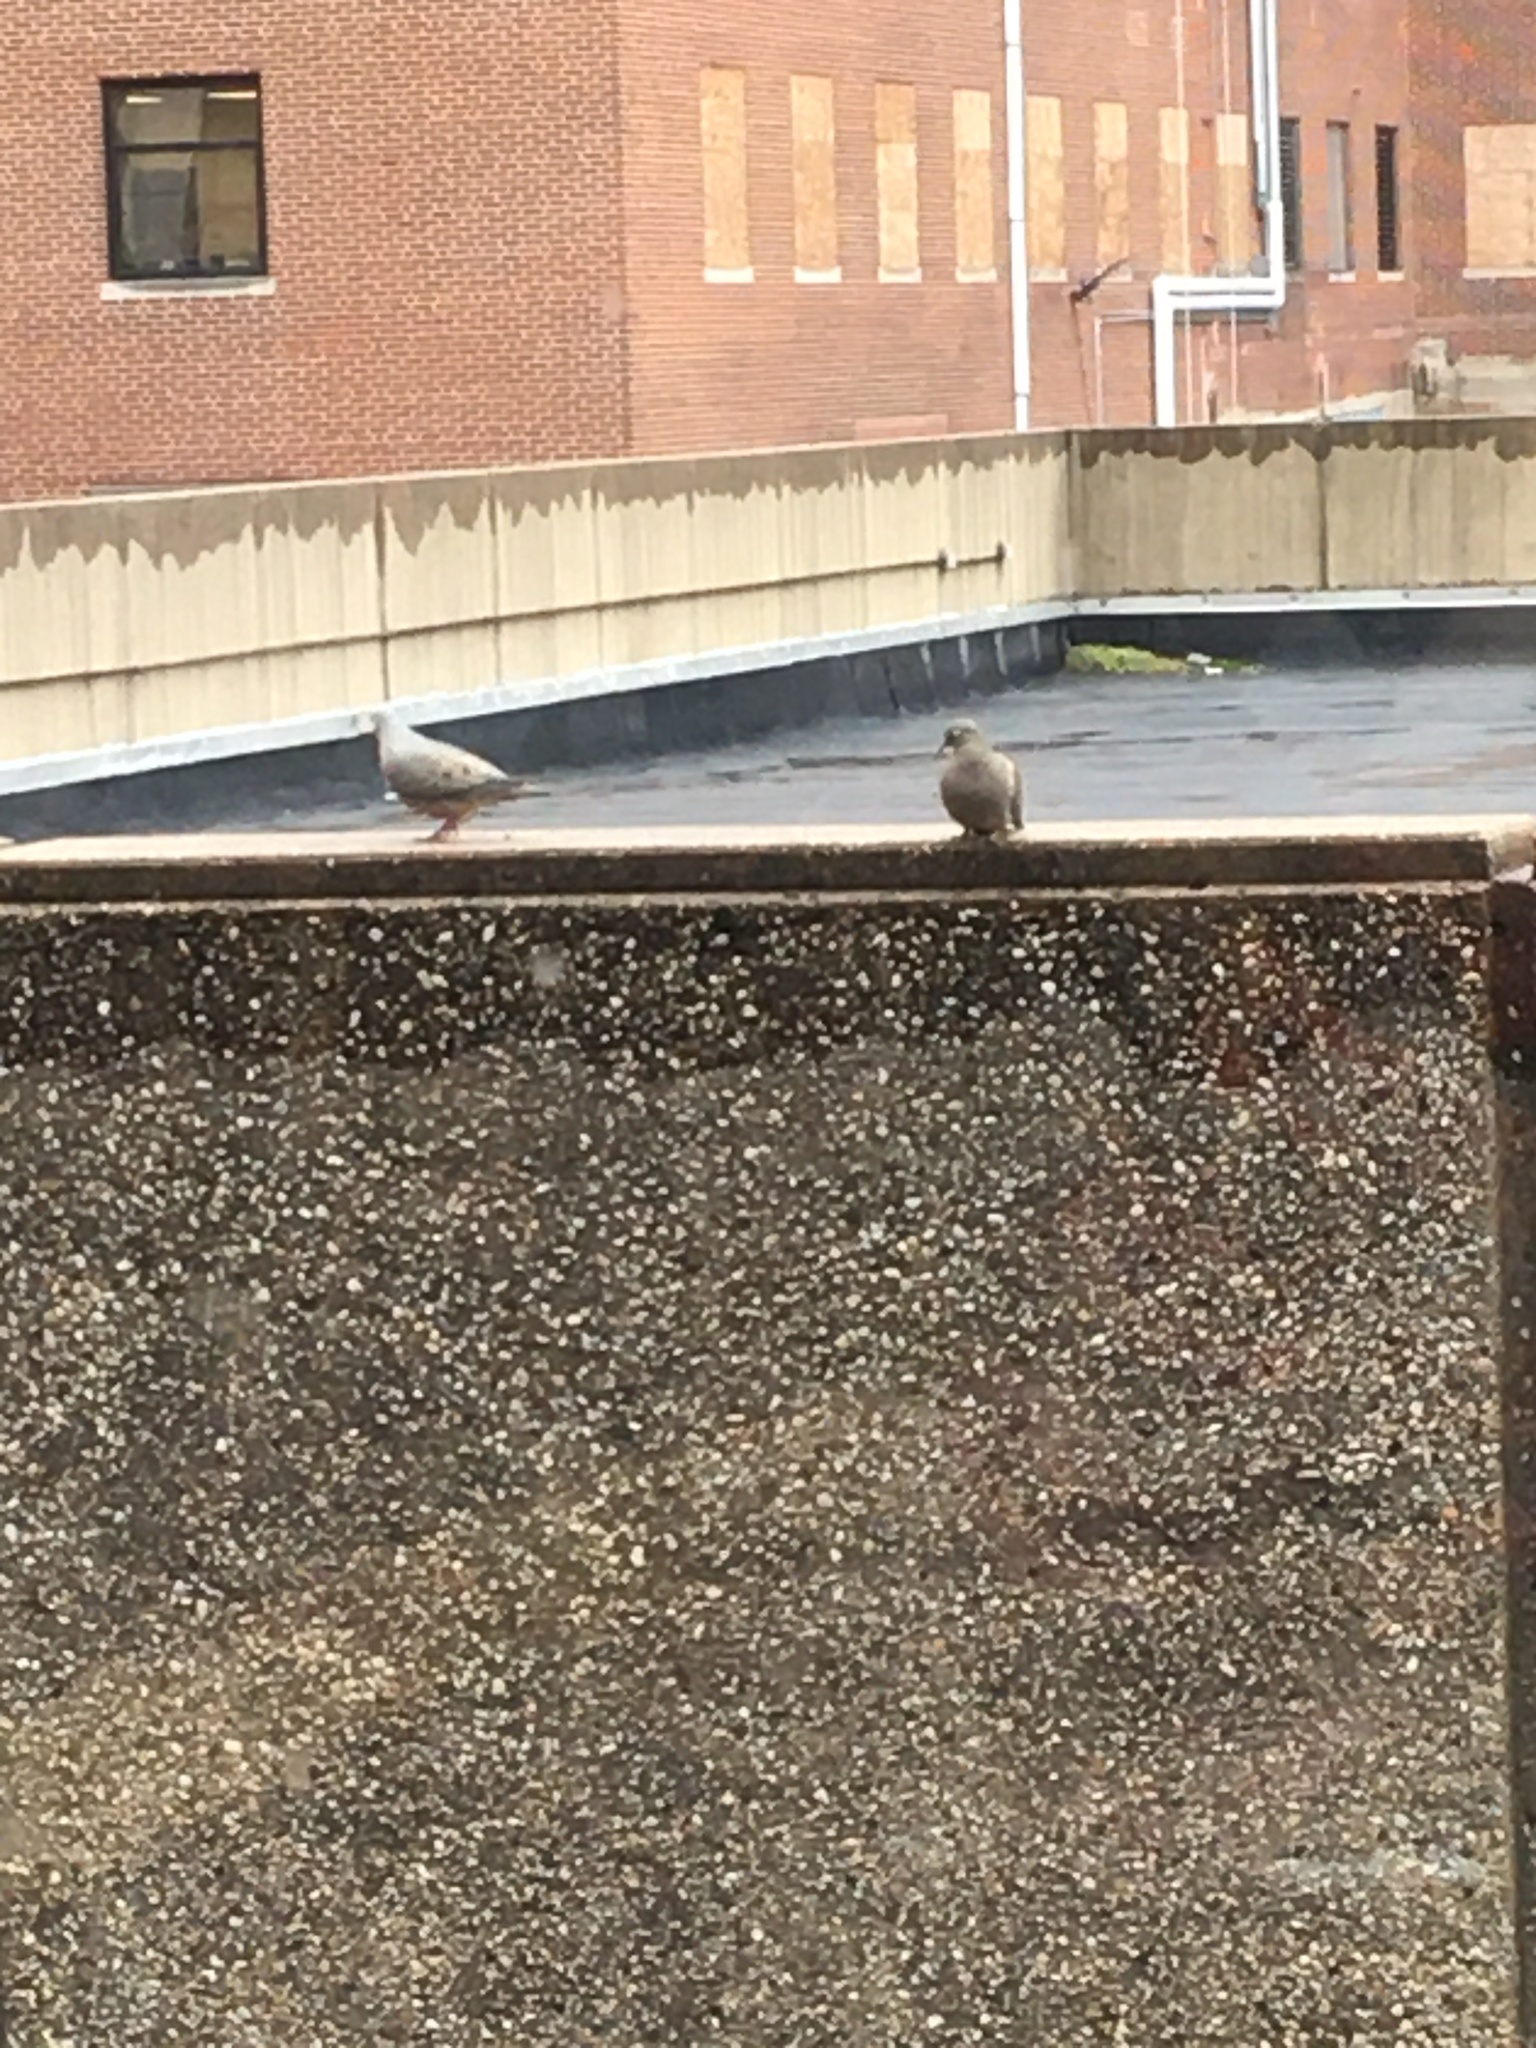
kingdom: Animalia
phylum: Chordata
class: Aves
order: Columbiformes
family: Columbidae
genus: Zenaida
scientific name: Zenaida macroura
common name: Mourning dove
